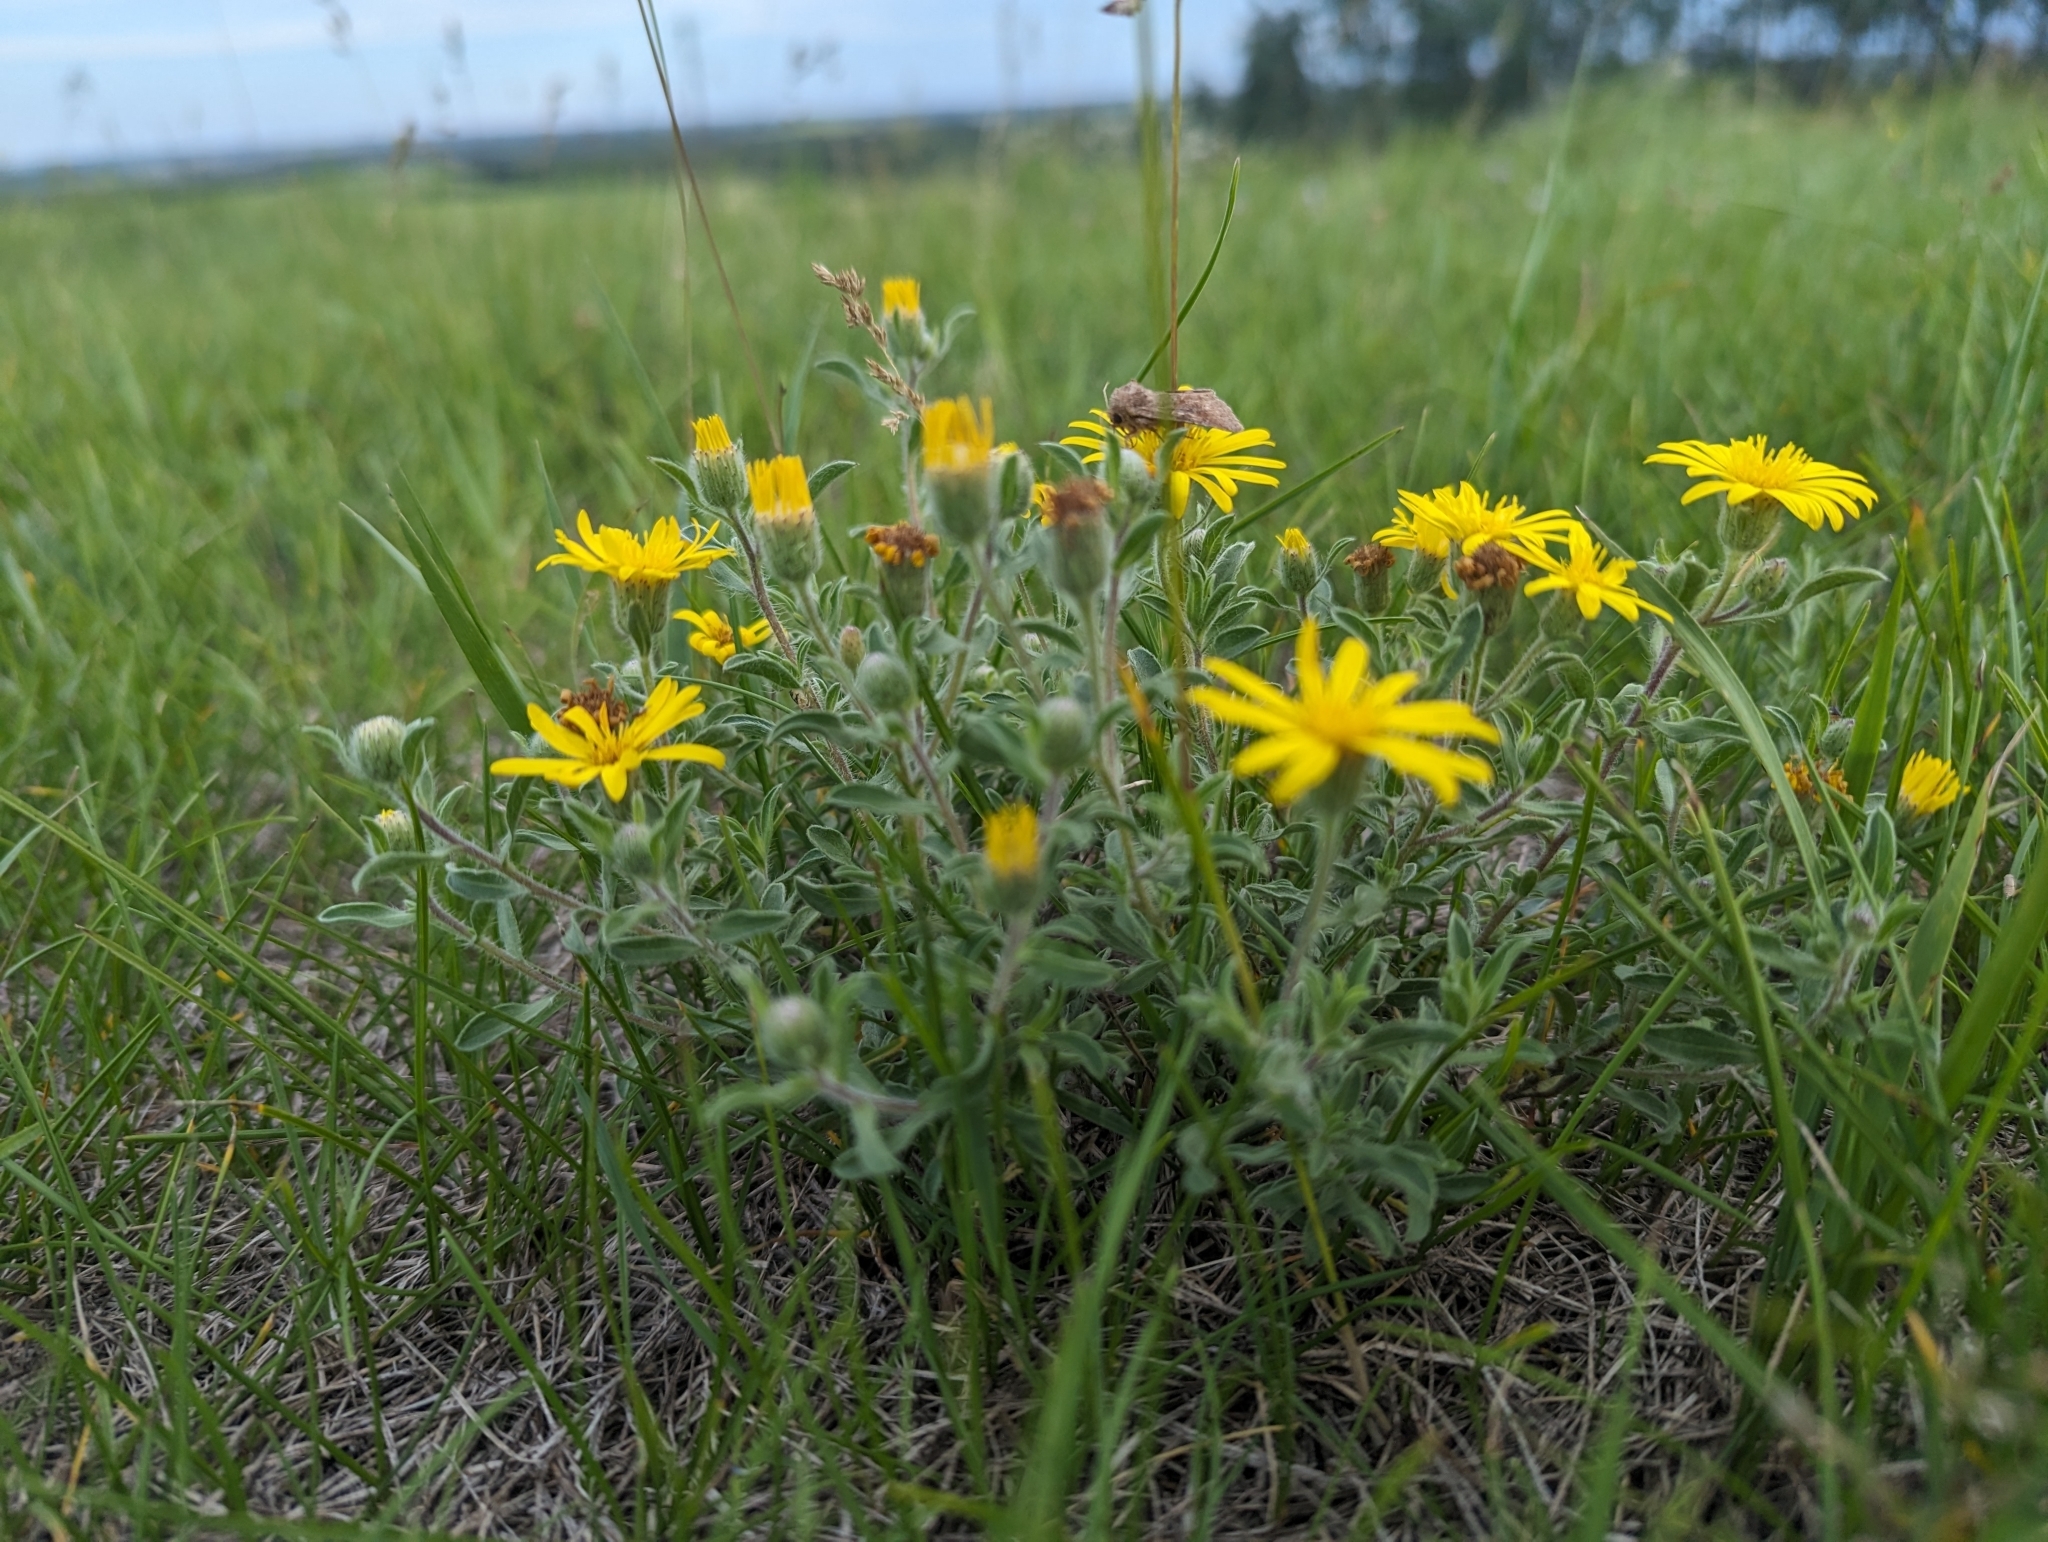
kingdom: Plantae
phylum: Tracheophyta
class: Magnoliopsida
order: Asterales
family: Asteraceae
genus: Heterotheca
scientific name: Heterotheca villosa
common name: Hairy false goldenaster
